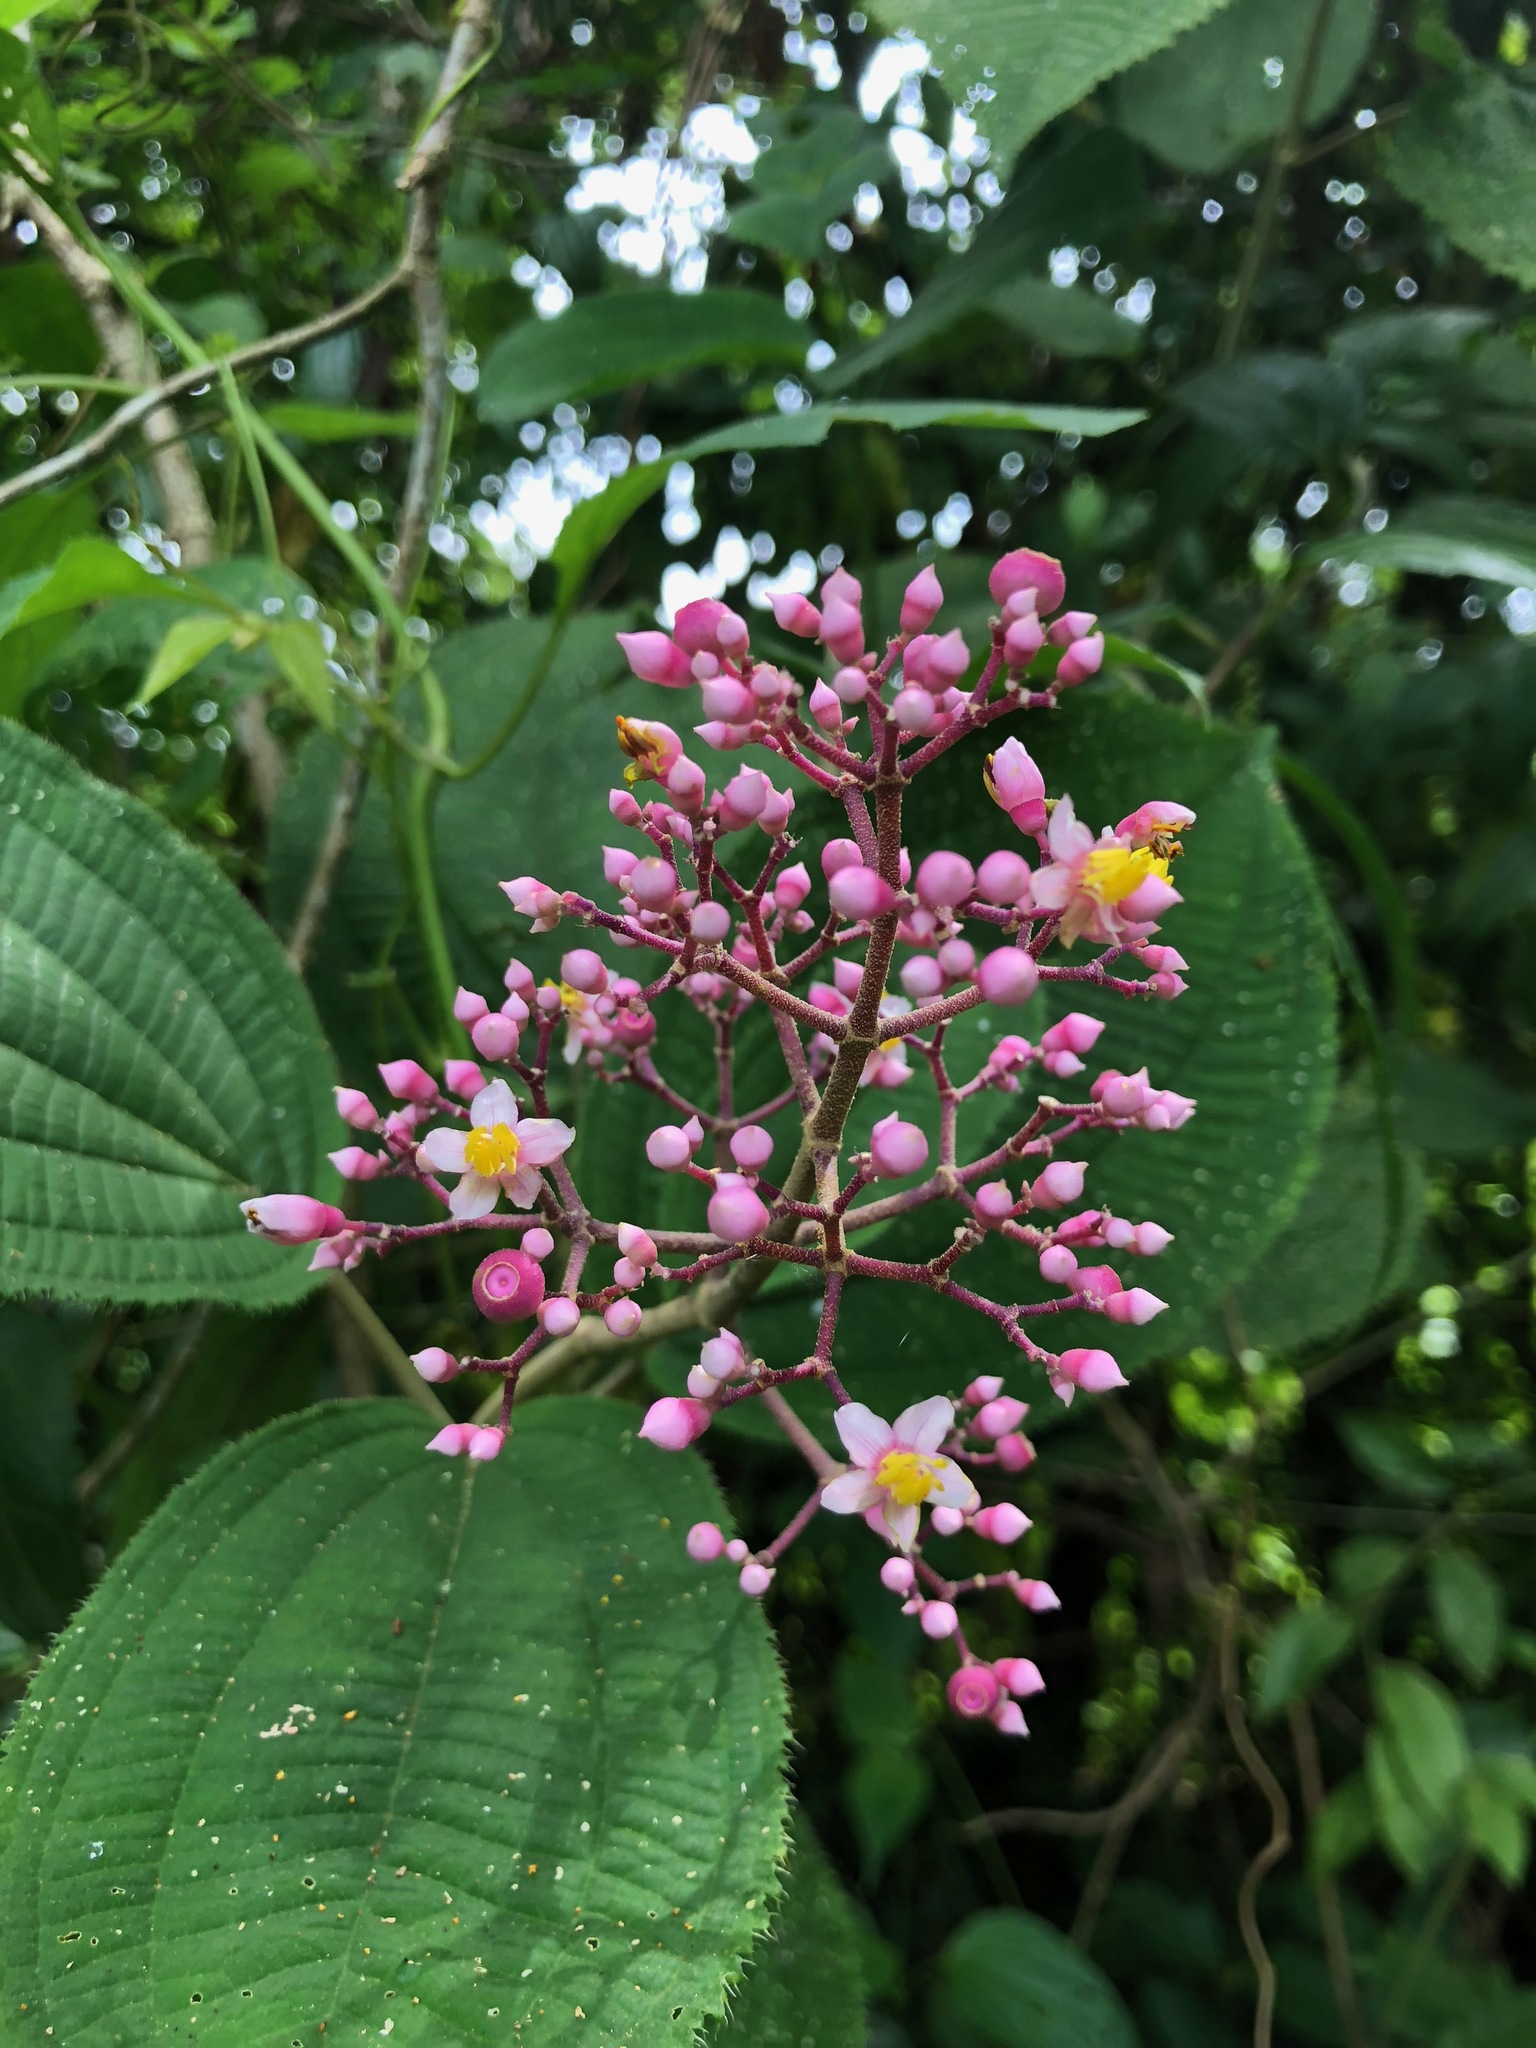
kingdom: Plantae
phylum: Tracheophyta
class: Magnoliopsida
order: Myrtales
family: Melastomataceae
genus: Miconia
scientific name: Miconia subcrustulata
